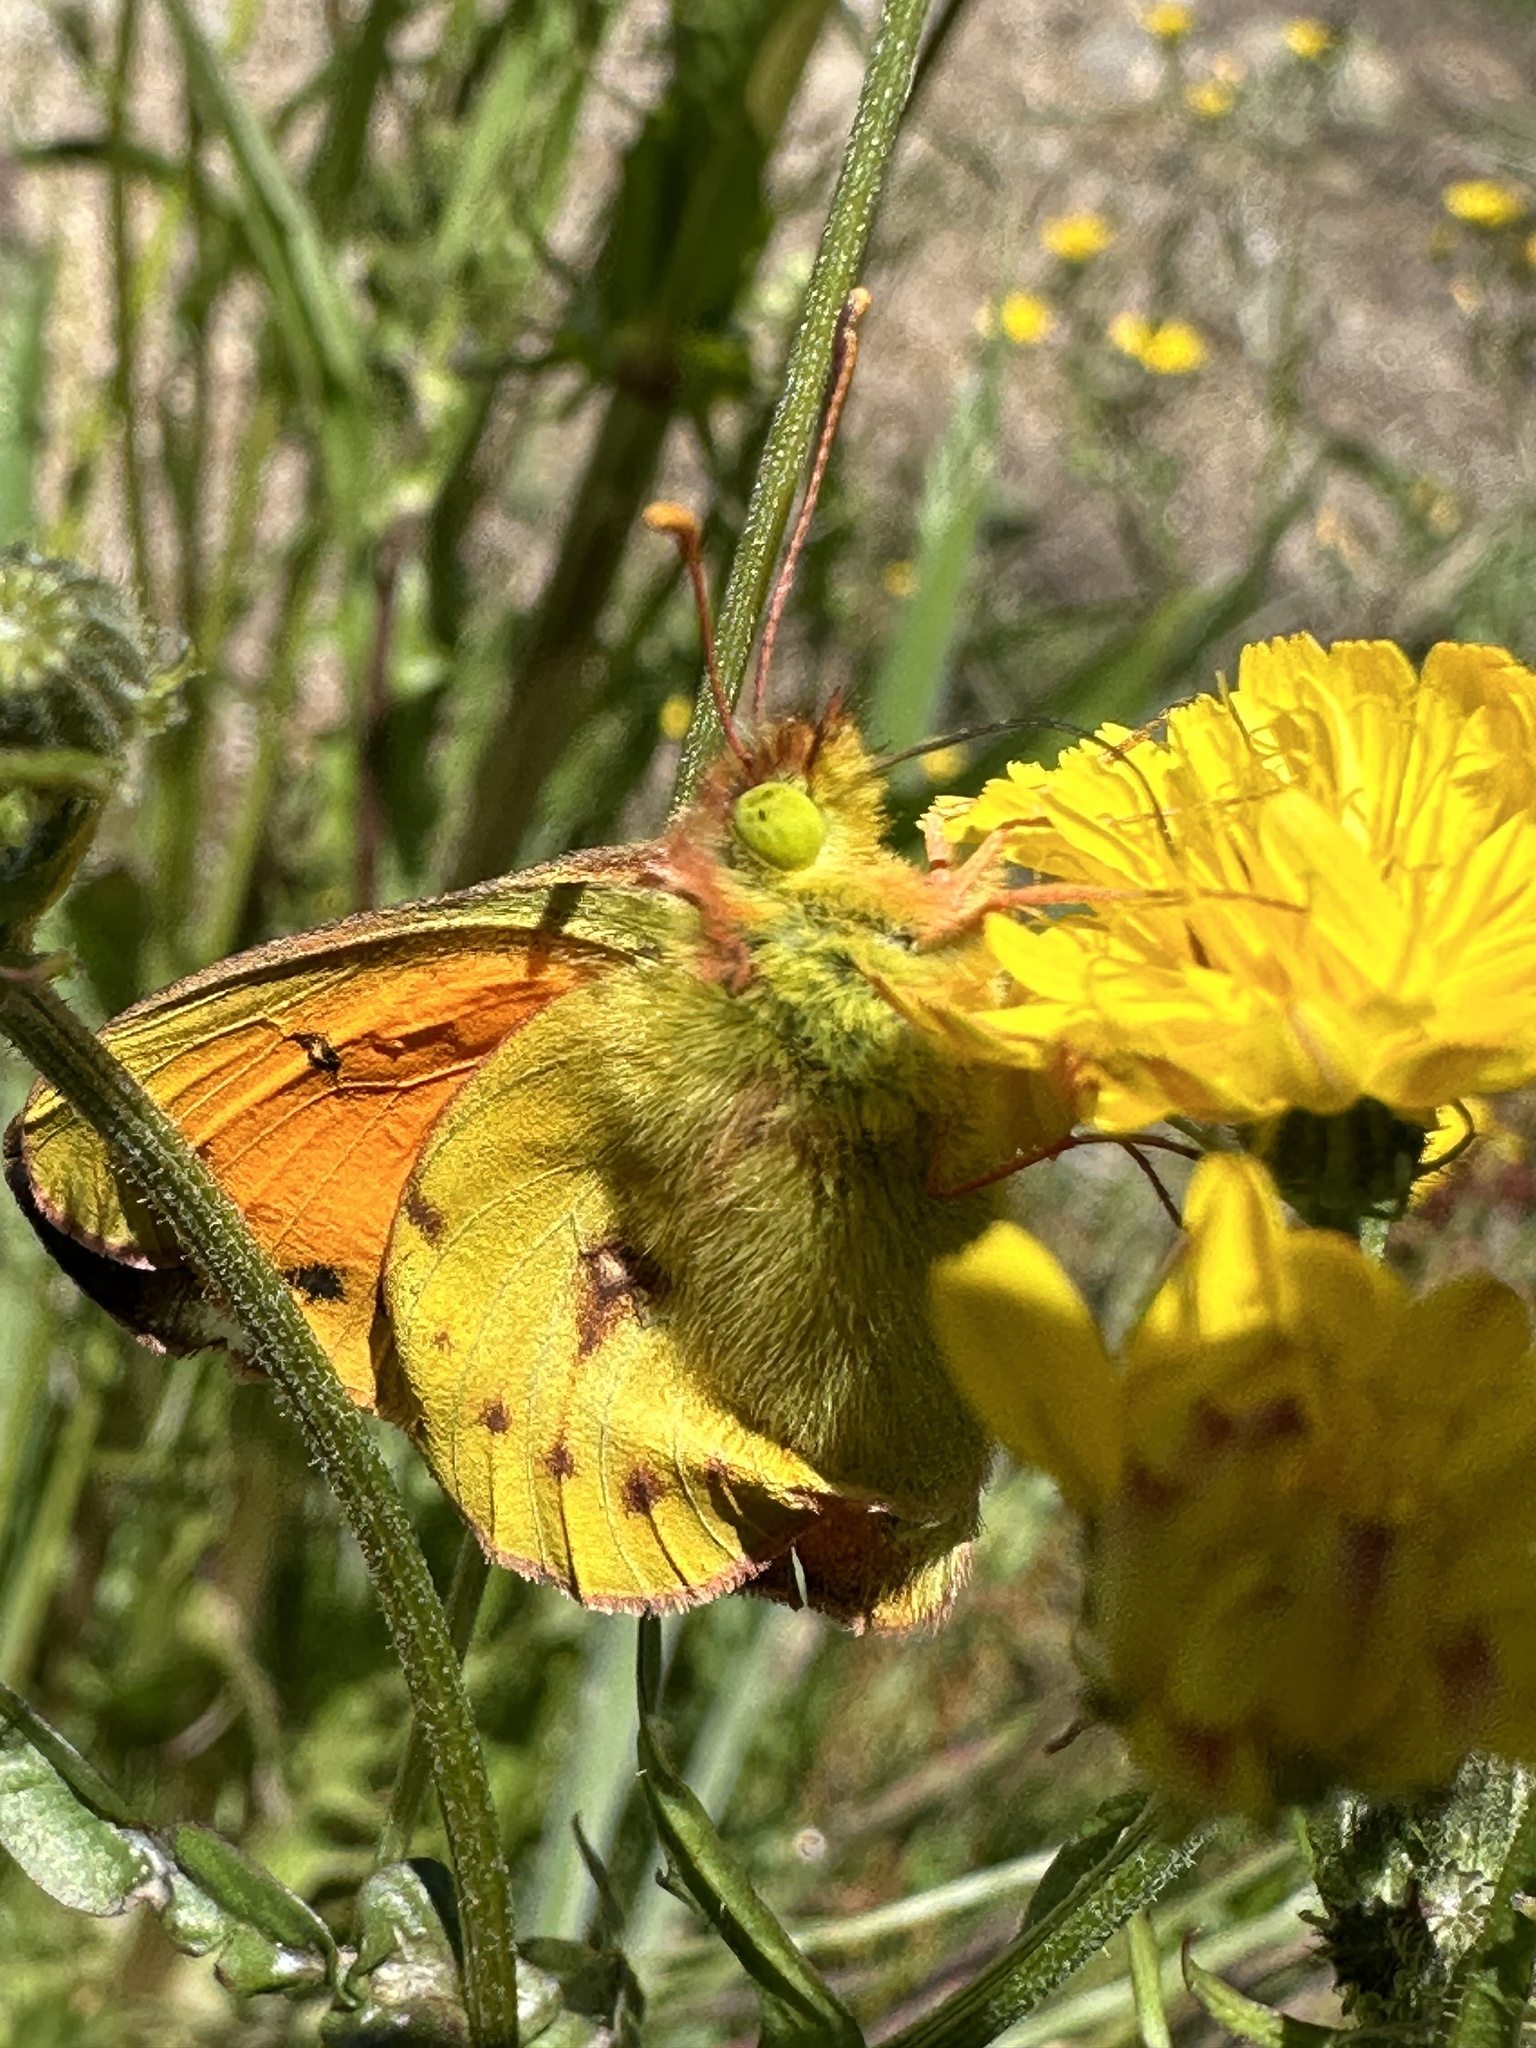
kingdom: Animalia
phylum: Arthropoda
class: Insecta
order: Lepidoptera
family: Pieridae
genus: Colias
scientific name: Colias vauthierii
